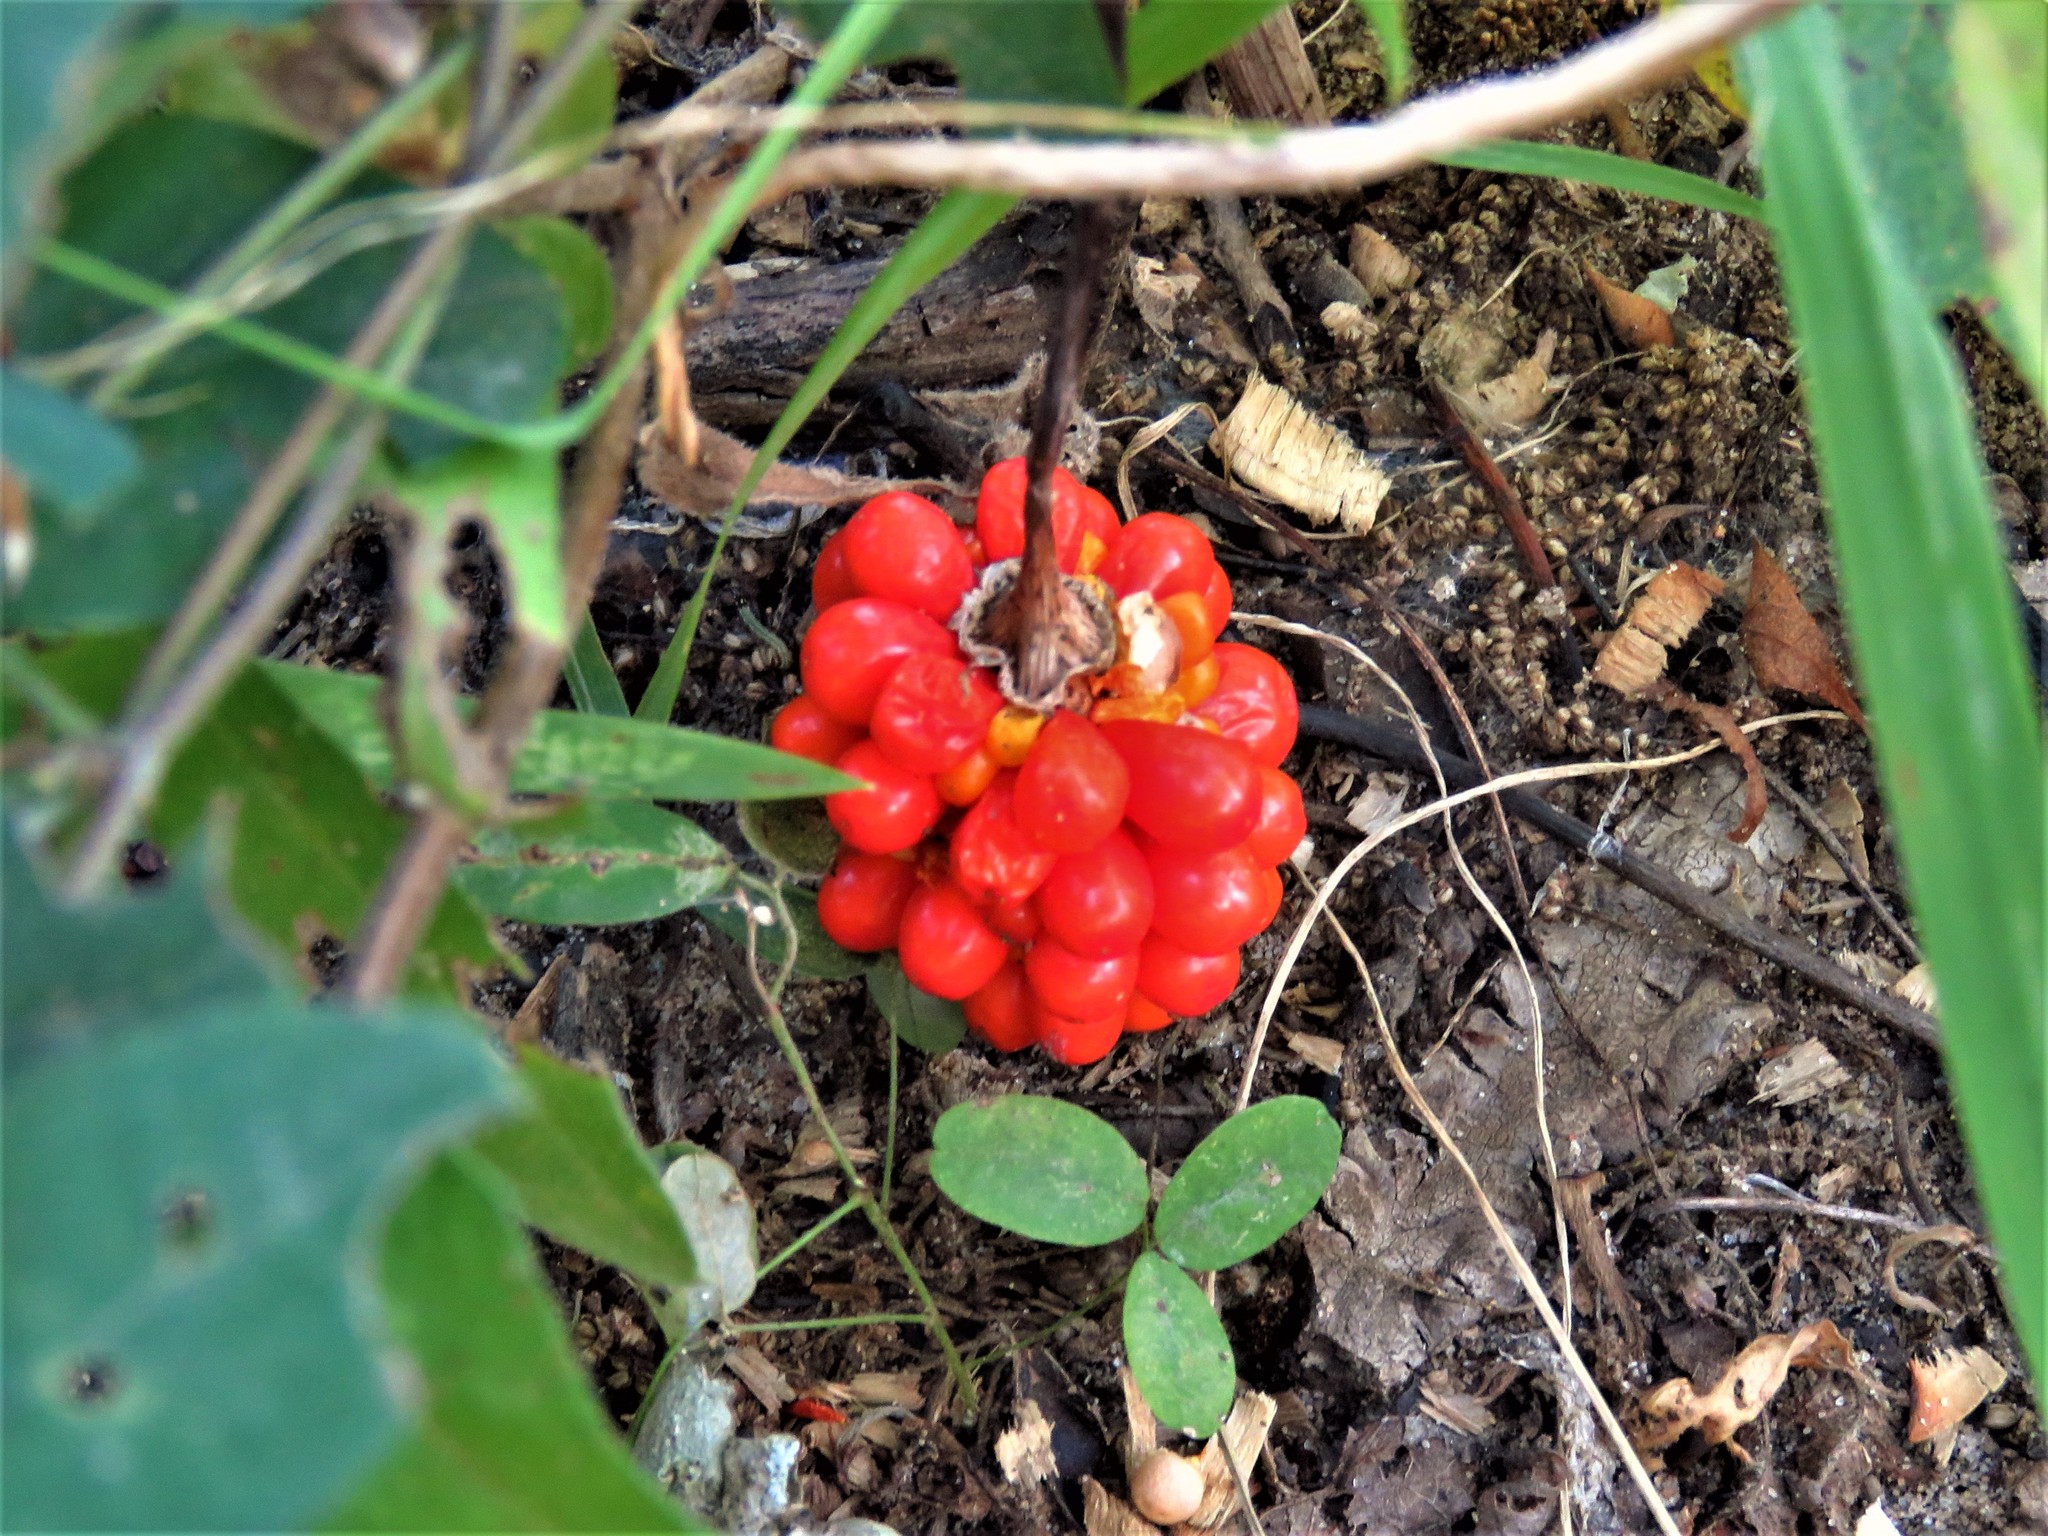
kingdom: Plantae
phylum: Tracheophyta
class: Liliopsida
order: Alismatales
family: Araceae
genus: Arisaema
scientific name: Arisaema triphyllum
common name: Jack-in-the-pulpit
